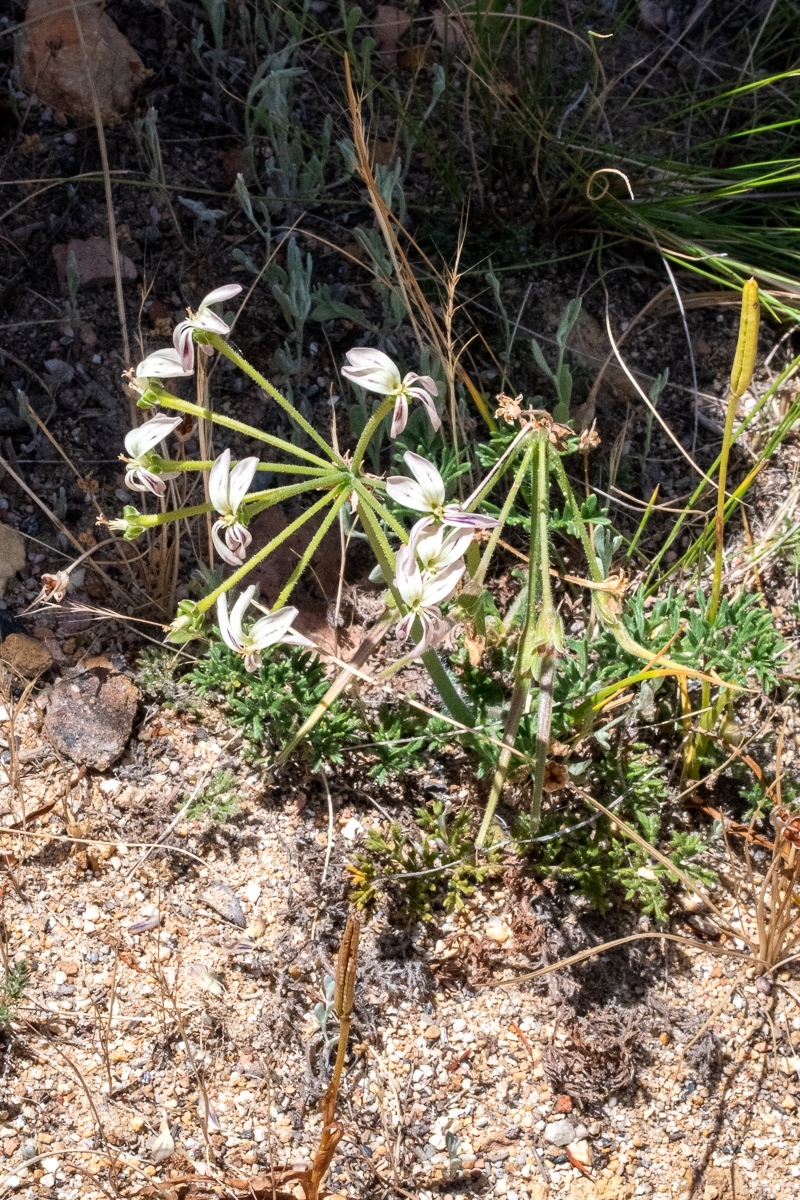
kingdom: Plantae
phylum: Tracheophyta
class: Magnoliopsida
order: Geraniales
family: Geraniaceae
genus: Pelargonium
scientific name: Pelargonium triste
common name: Night-scent pelargonium
